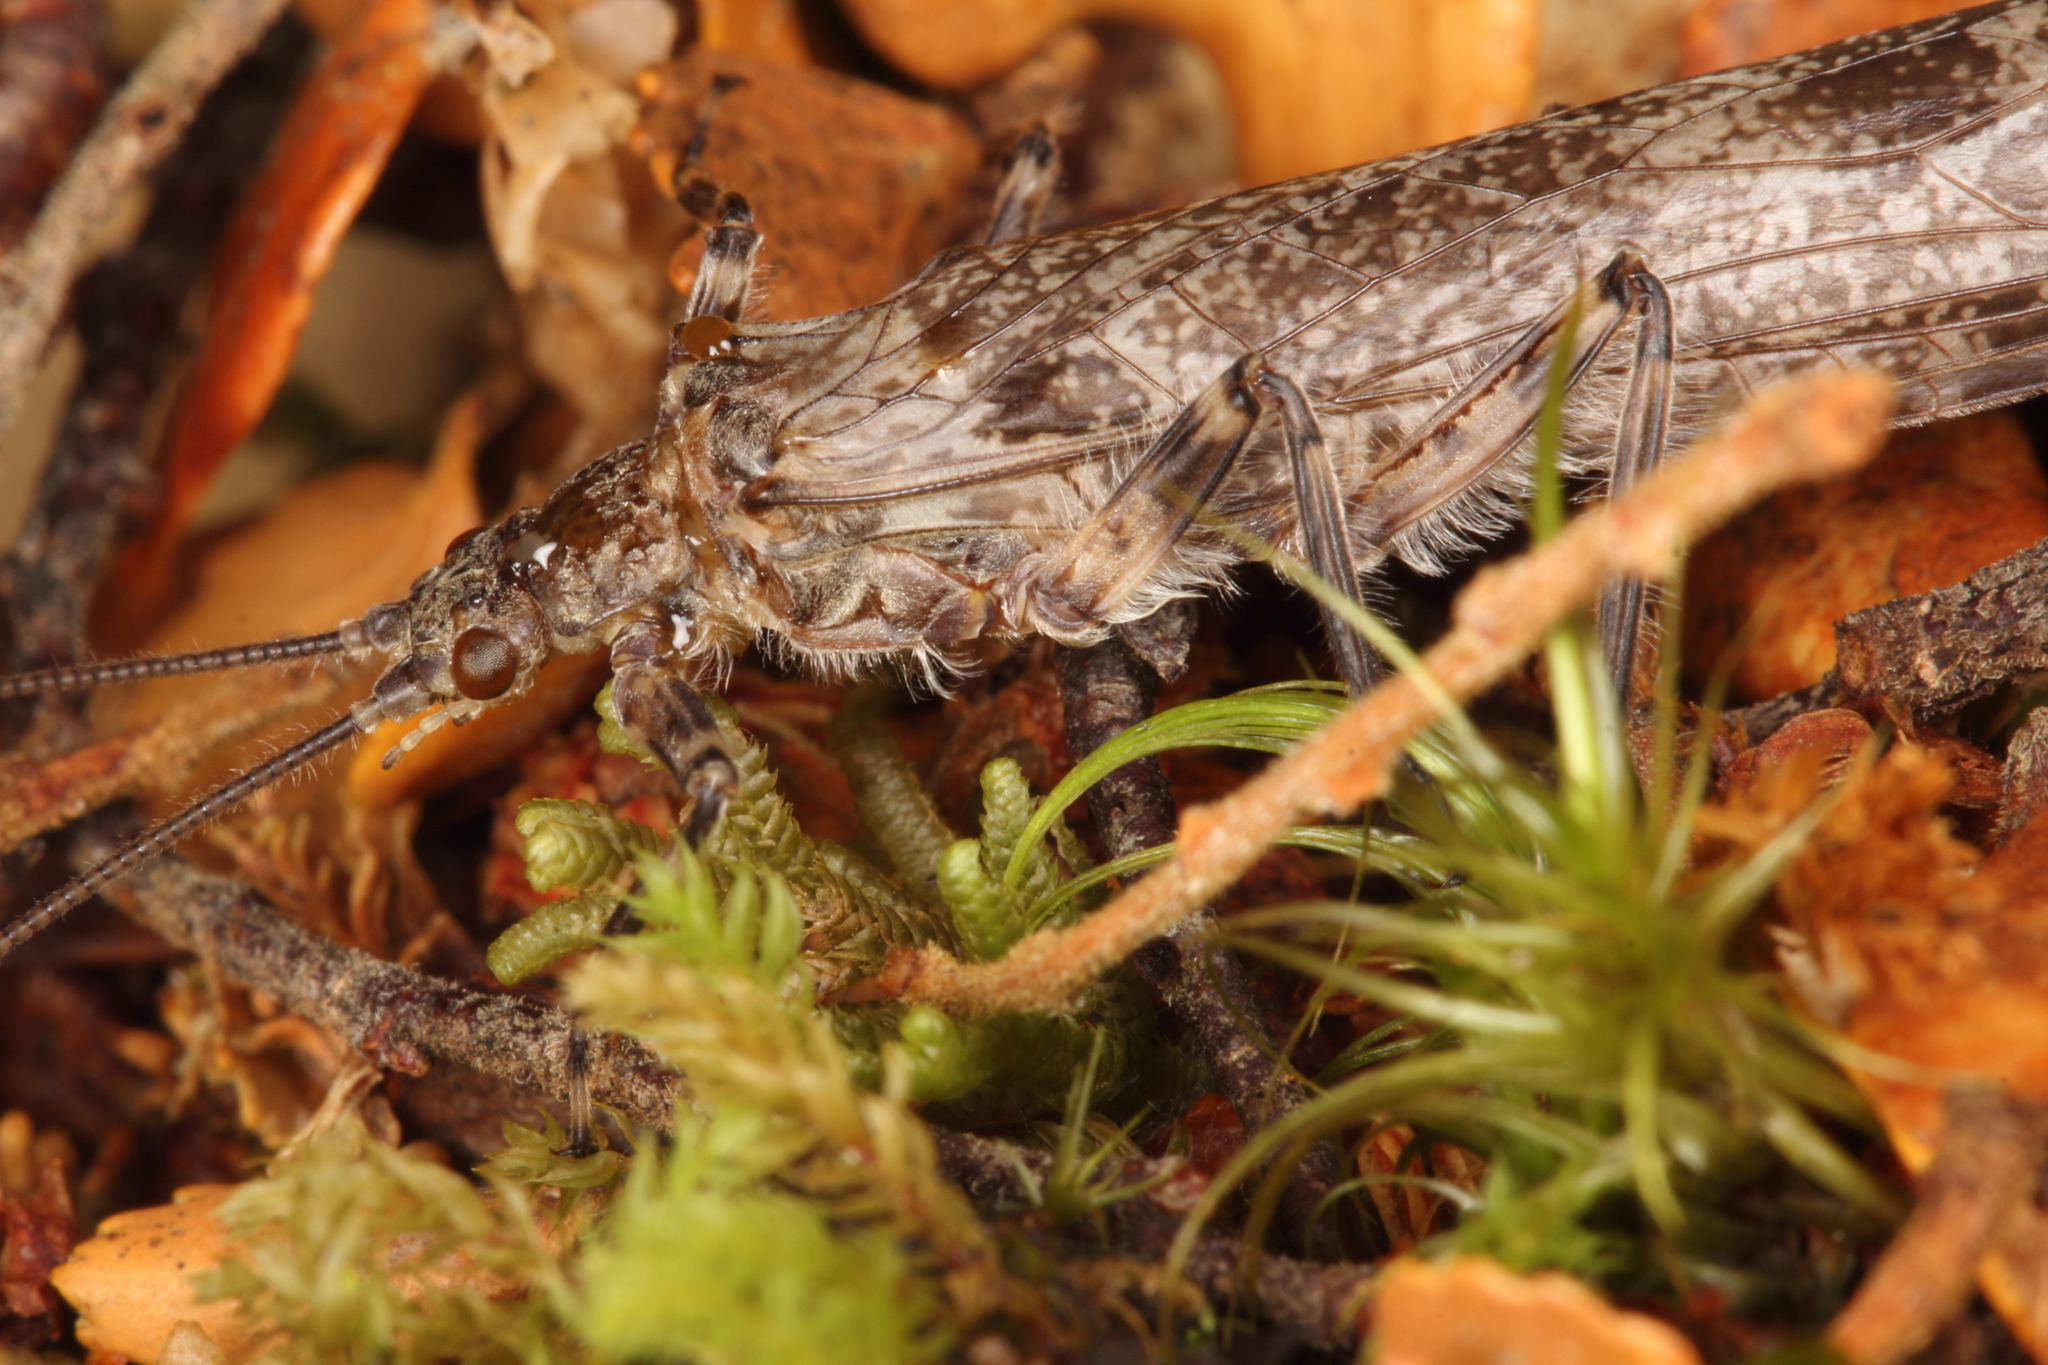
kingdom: Animalia
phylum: Arthropoda
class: Insecta
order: Plecoptera
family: Gripopterygidae
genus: Megaleptoperla
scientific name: Megaleptoperla grandis
